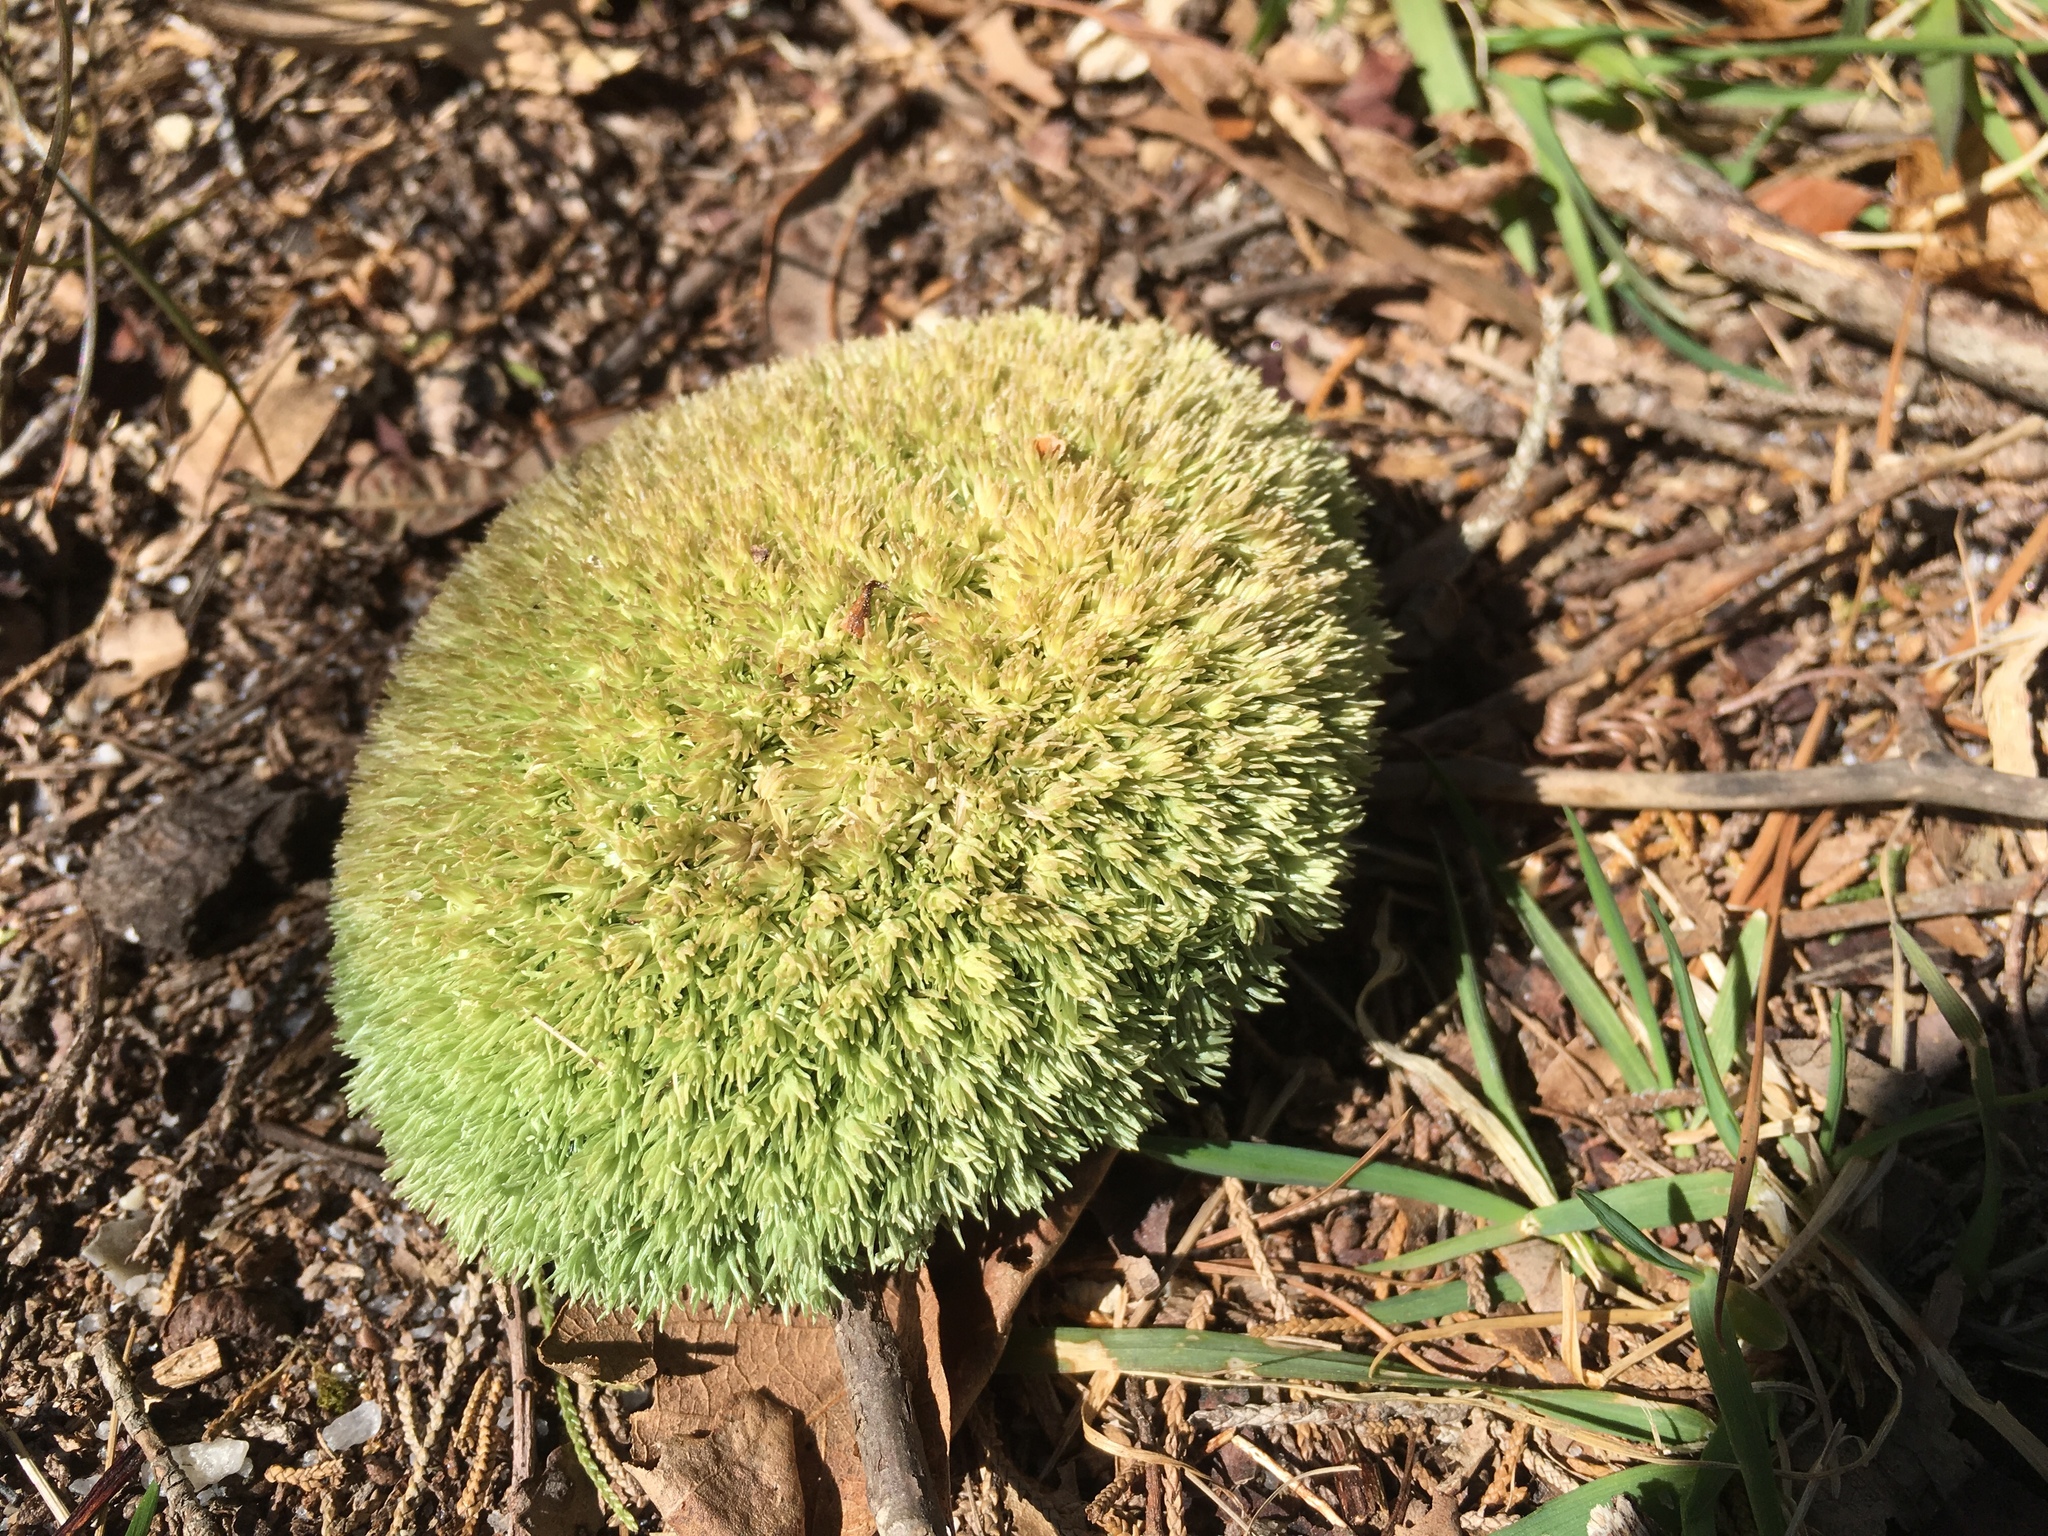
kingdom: Plantae
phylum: Bryophyta
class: Bryopsida
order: Dicranales
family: Leucobryaceae
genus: Leucobryum
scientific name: Leucobryum glaucum
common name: Large white-moss
